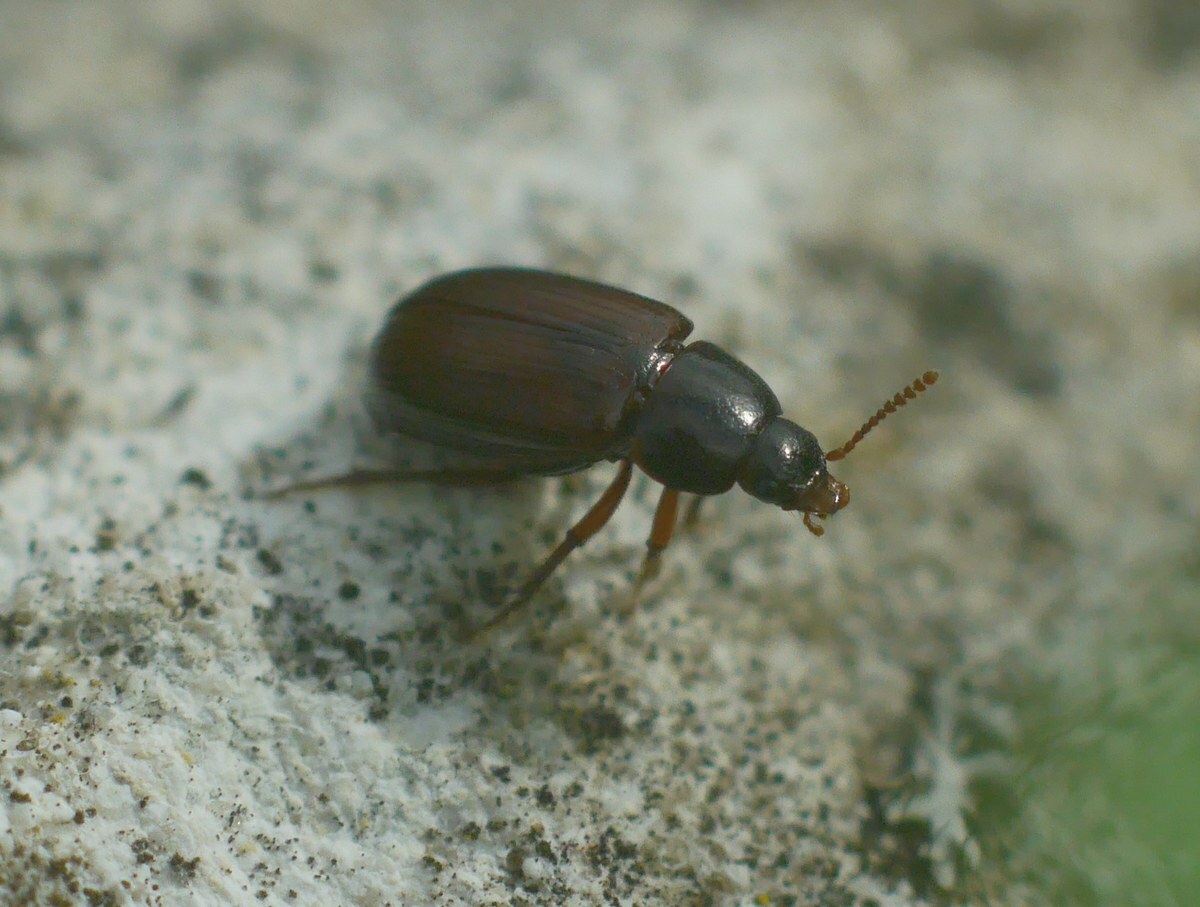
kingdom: Animalia
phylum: Arthropoda
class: Insecta
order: Coleoptera
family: Agyrtidae
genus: Agyrtes
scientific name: Agyrtes castaneus
